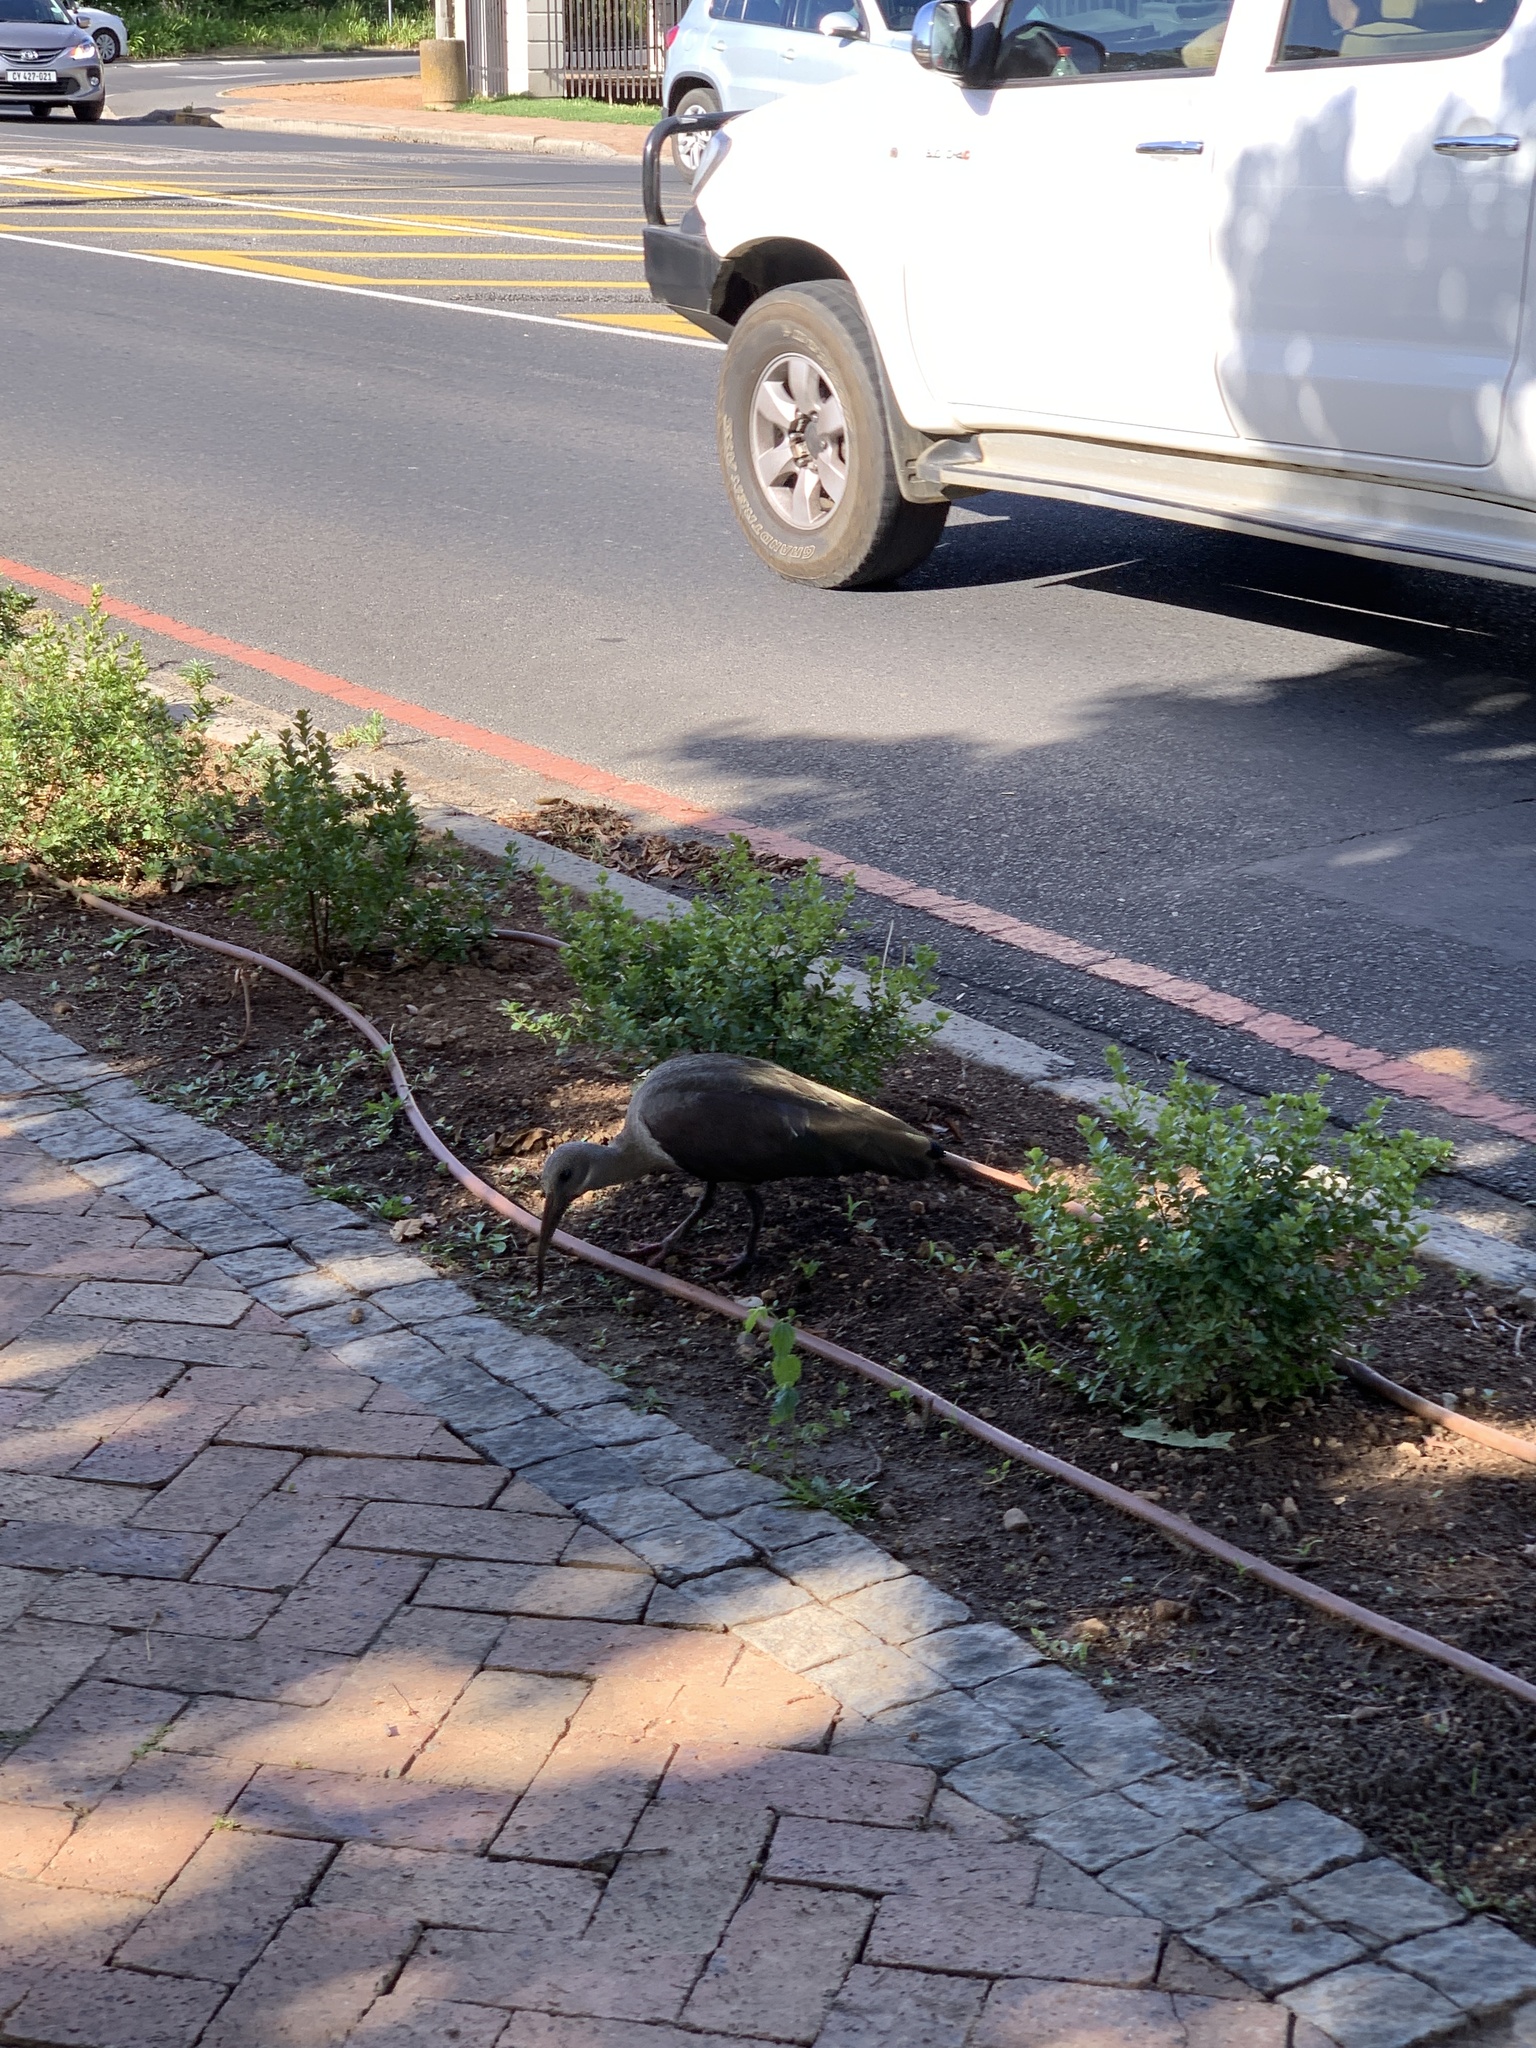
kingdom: Animalia
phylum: Chordata
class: Aves
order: Pelecaniformes
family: Threskiornithidae
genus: Bostrychia
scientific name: Bostrychia hagedash
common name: Hadada ibis
